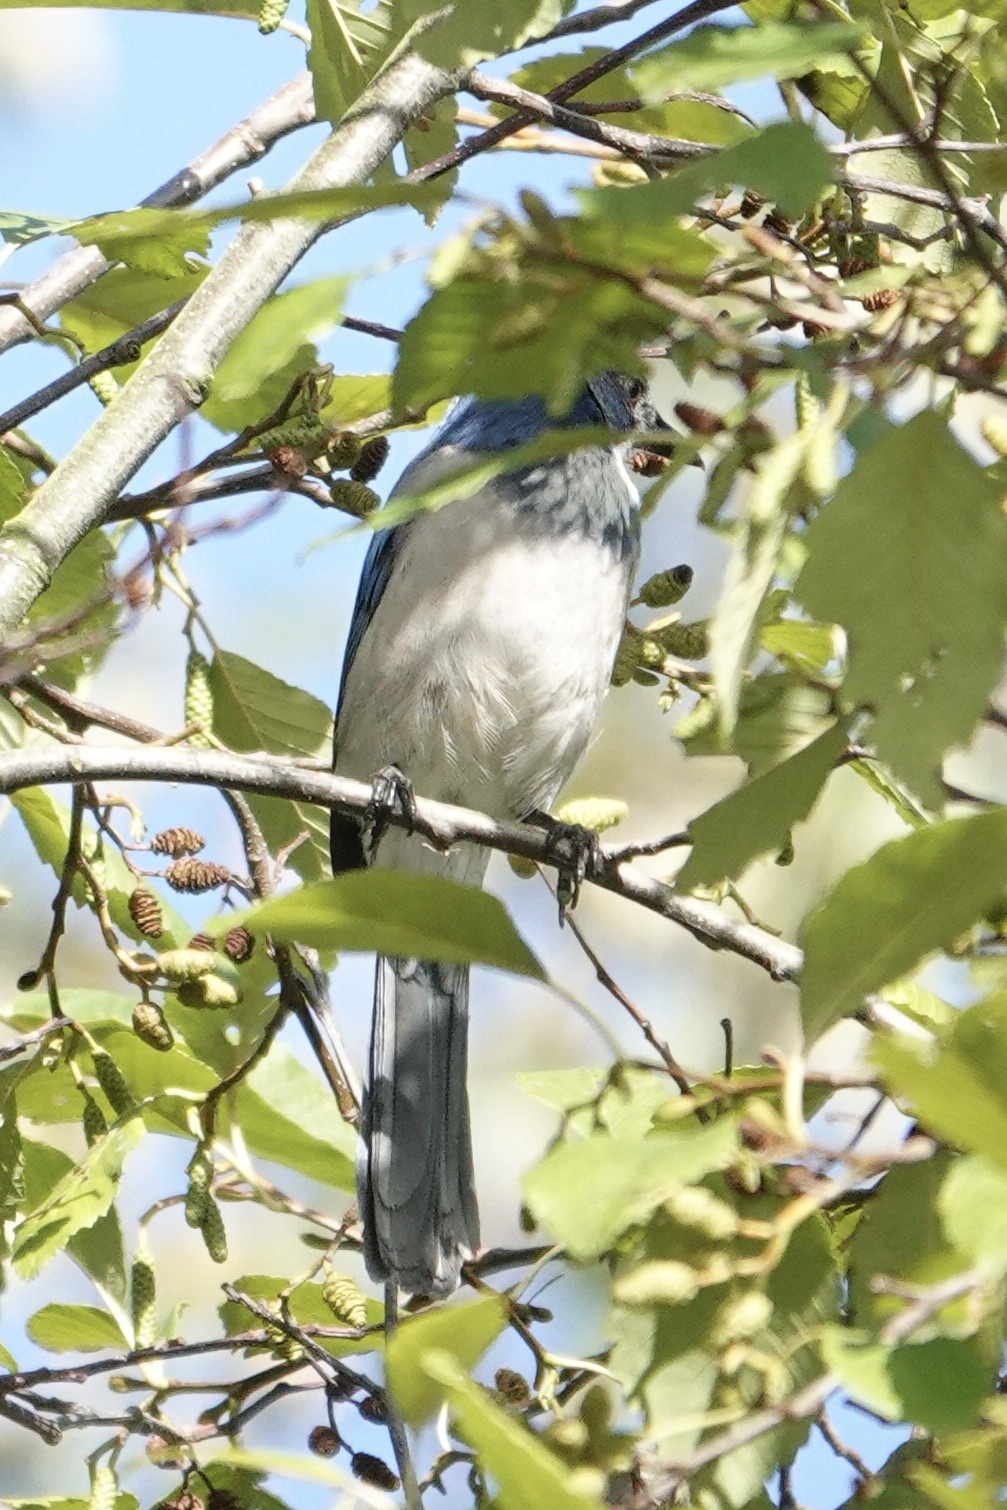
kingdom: Animalia
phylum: Chordata
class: Aves
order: Passeriformes
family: Corvidae
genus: Aphelocoma
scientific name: Aphelocoma californica
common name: California scrub-jay
